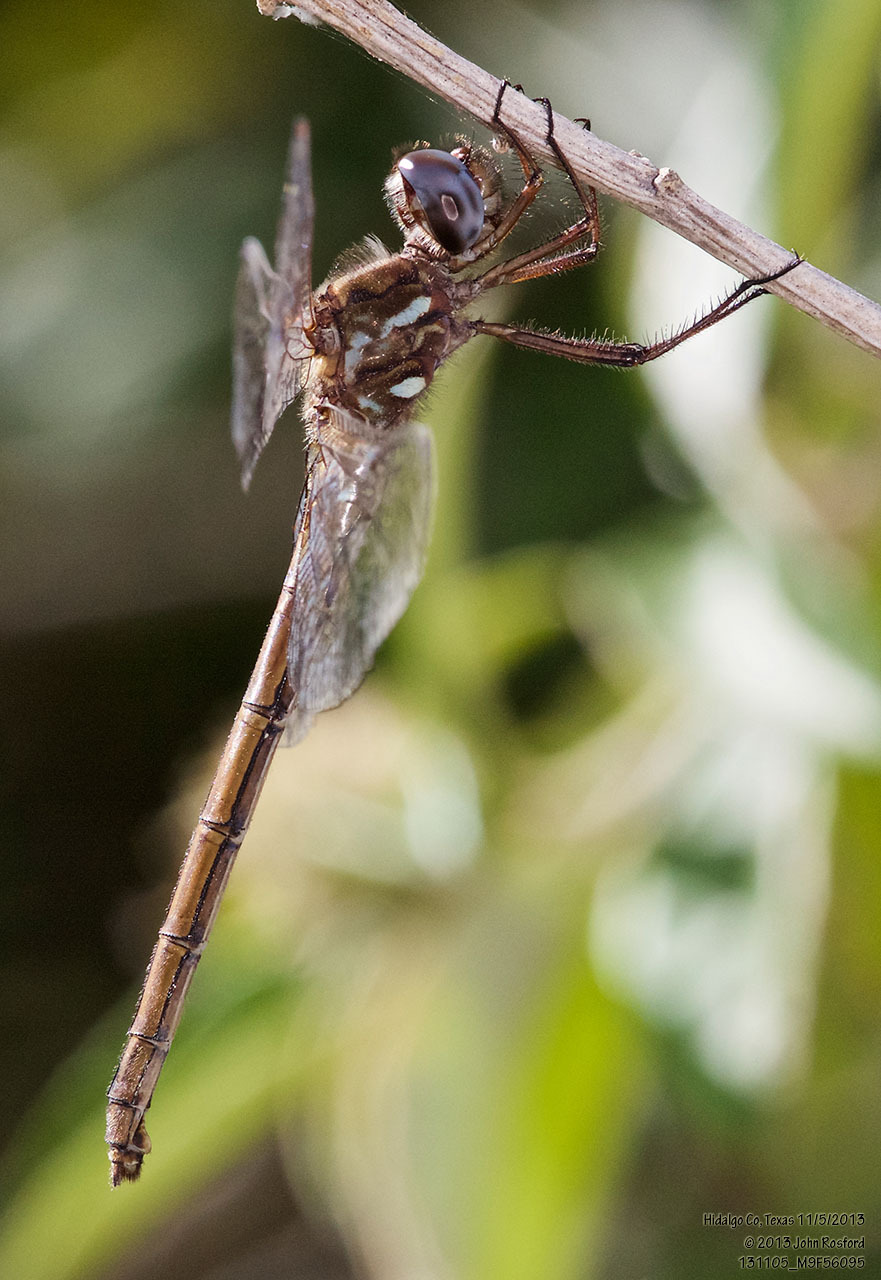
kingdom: Animalia
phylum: Arthropoda
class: Insecta
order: Odonata
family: Libellulidae
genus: Macrothemis
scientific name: Macrothemis inacuta
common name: Straw-colored sylph
